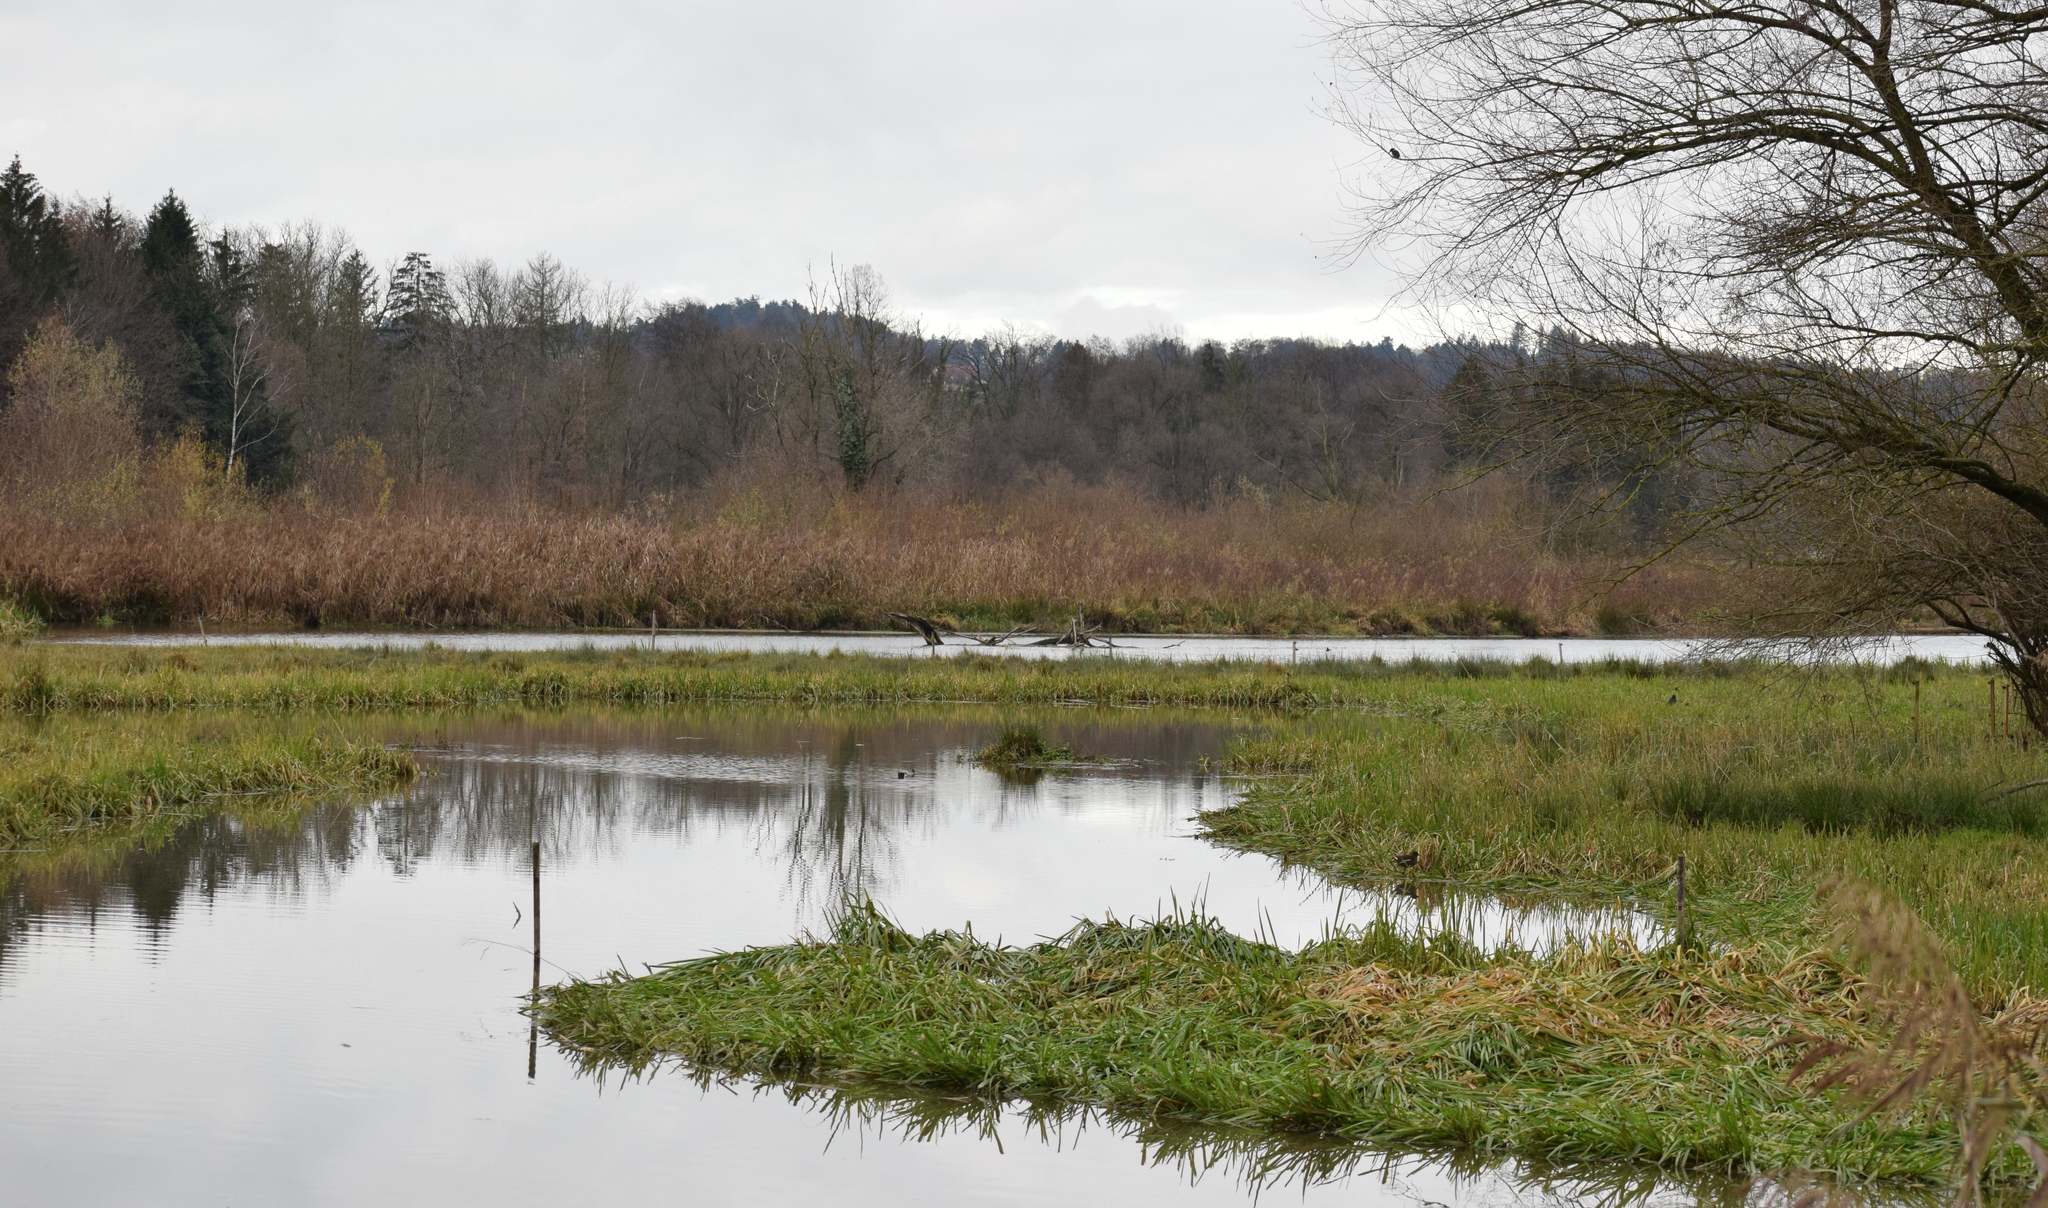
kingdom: Animalia
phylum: Chordata
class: Aves
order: Coraciiformes
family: Alcedinidae
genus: Alcedo
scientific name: Alcedo atthis
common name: Common kingfisher
